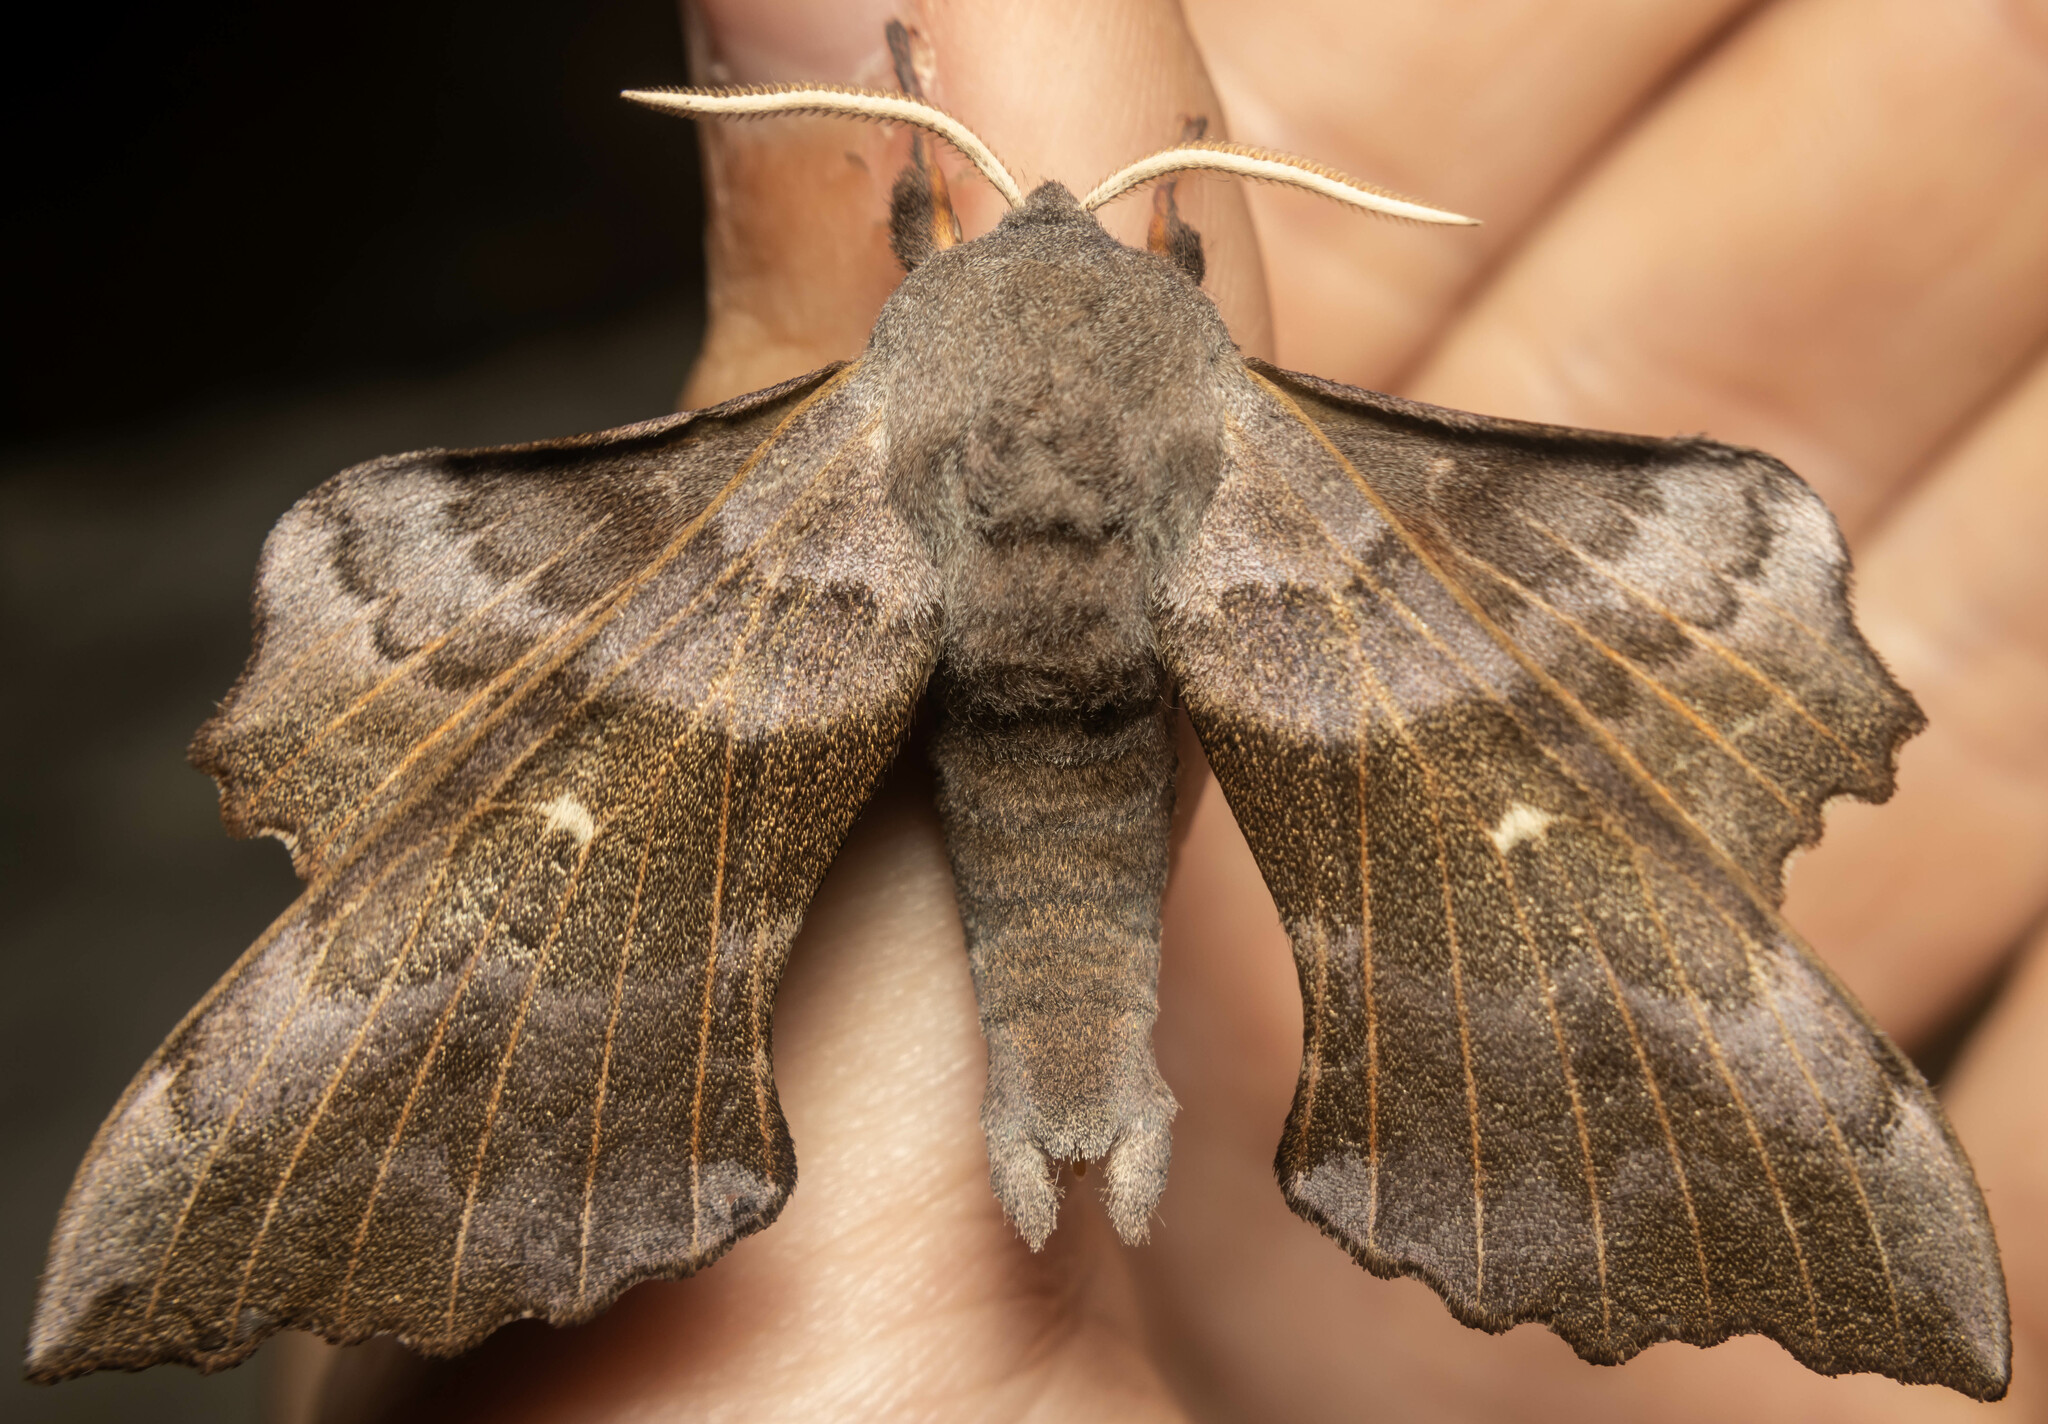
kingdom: Animalia
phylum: Arthropoda
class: Insecta
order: Lepidoptera
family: Sphingidae
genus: Laothoe
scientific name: Laothoe populi
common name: Poplar hawk-moth
